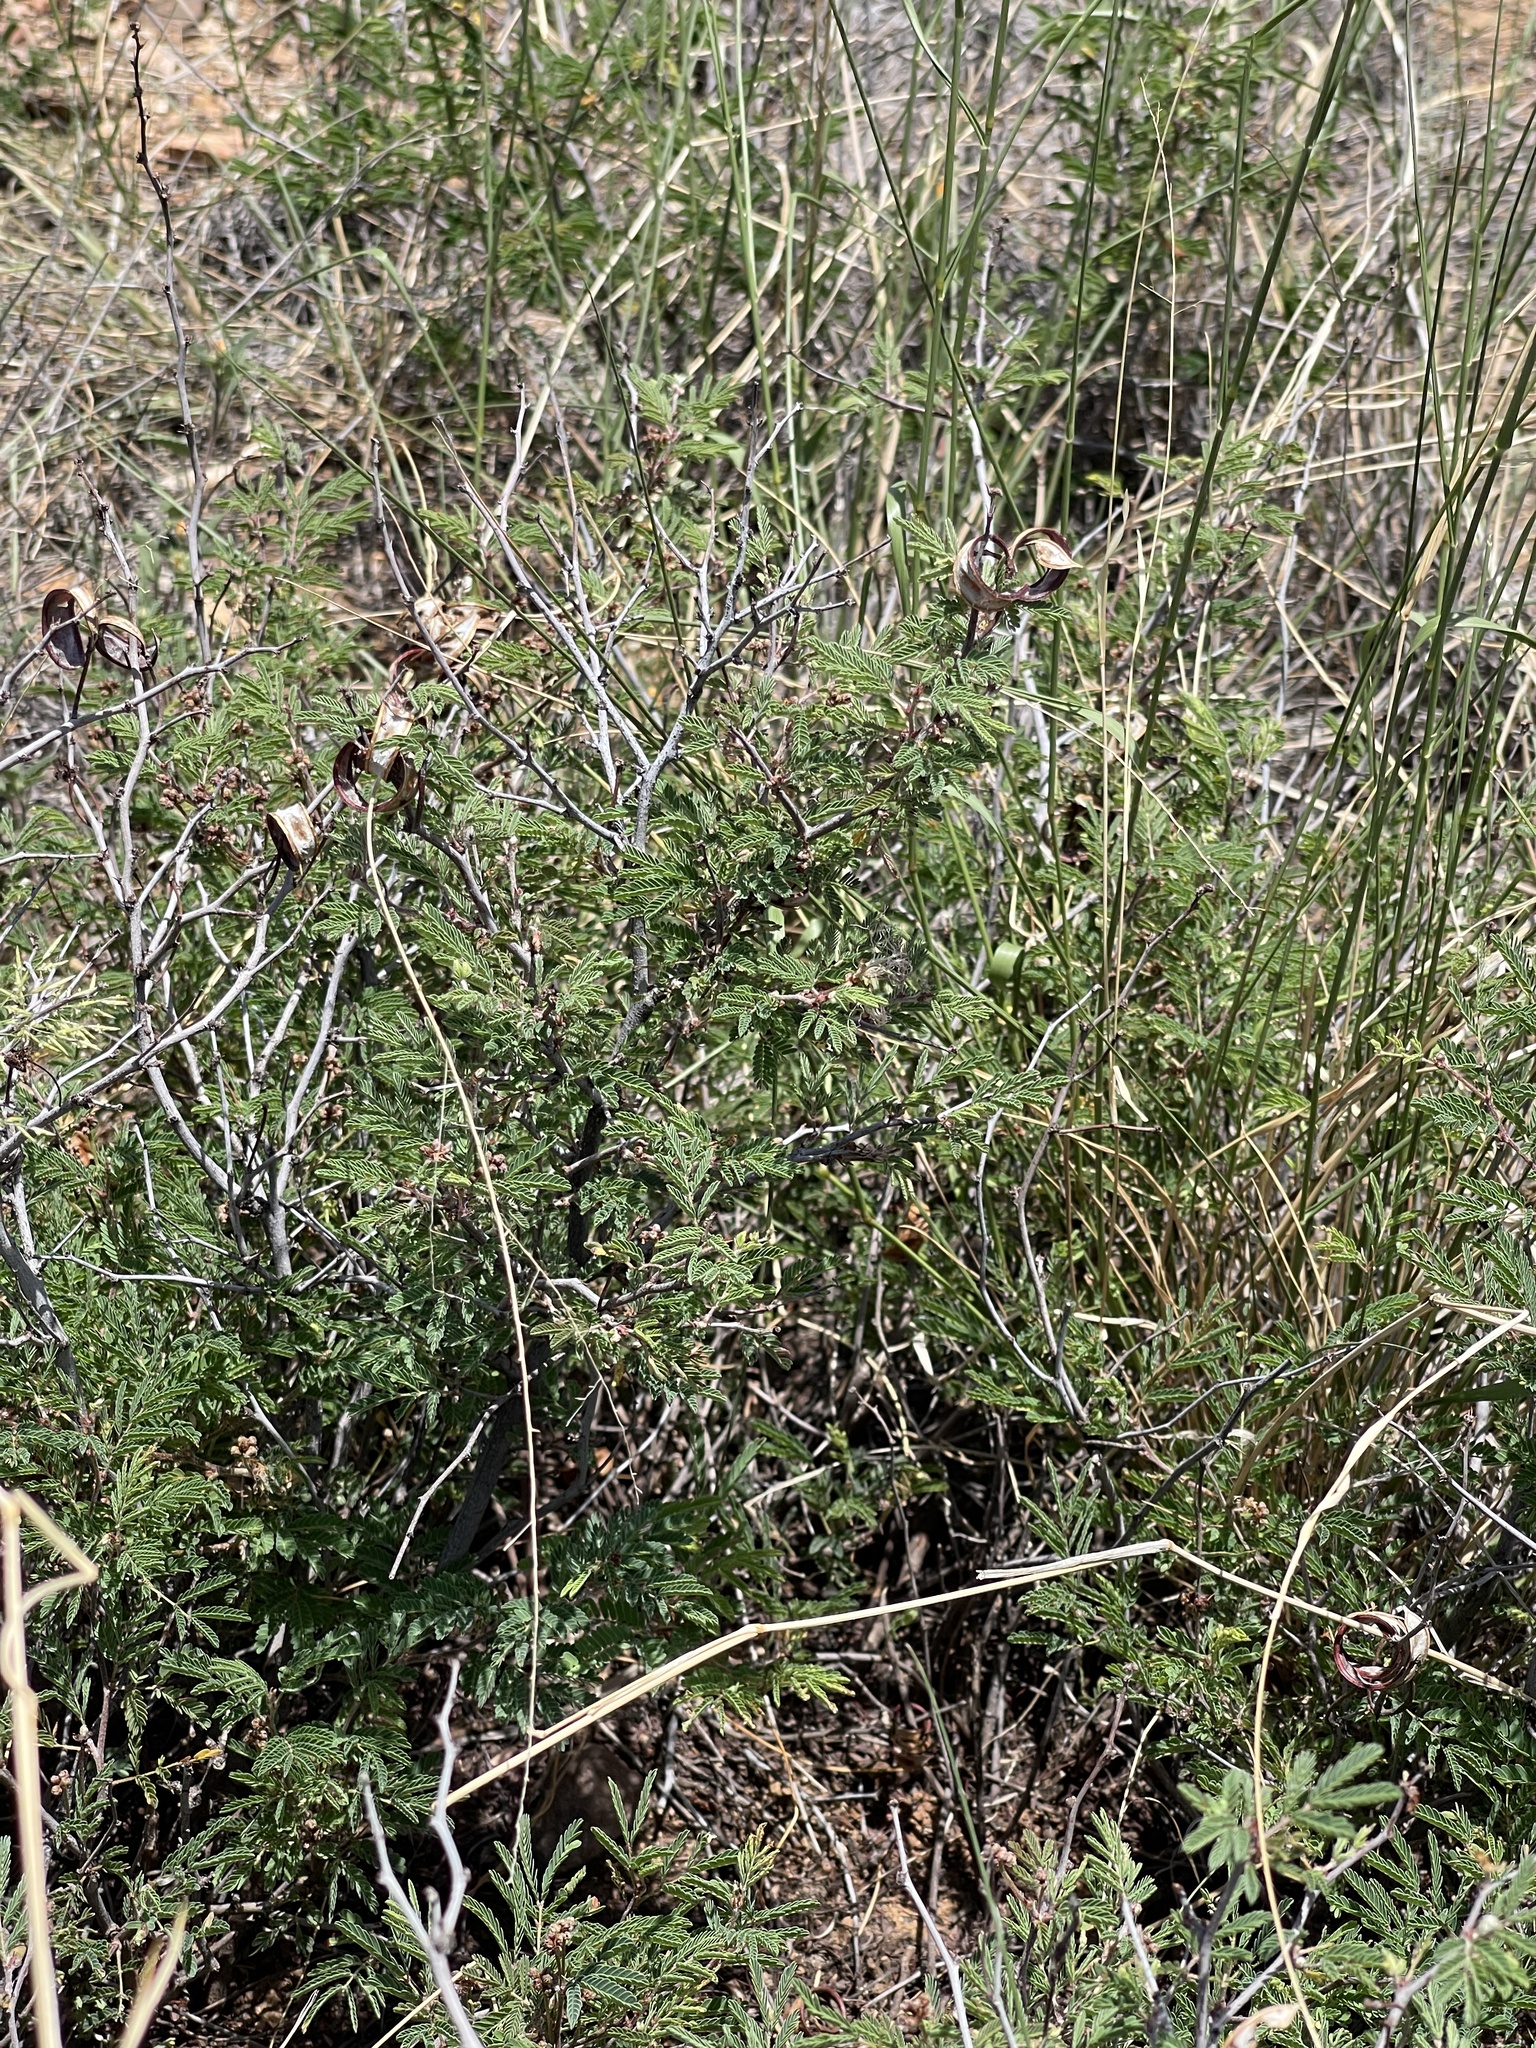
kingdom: Plantae
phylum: Tracheophyta
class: Magnoliopsida
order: Fabales
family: Fabaceae
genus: Calliandra
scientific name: Calliandra eriophylla
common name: Fairy-duster
